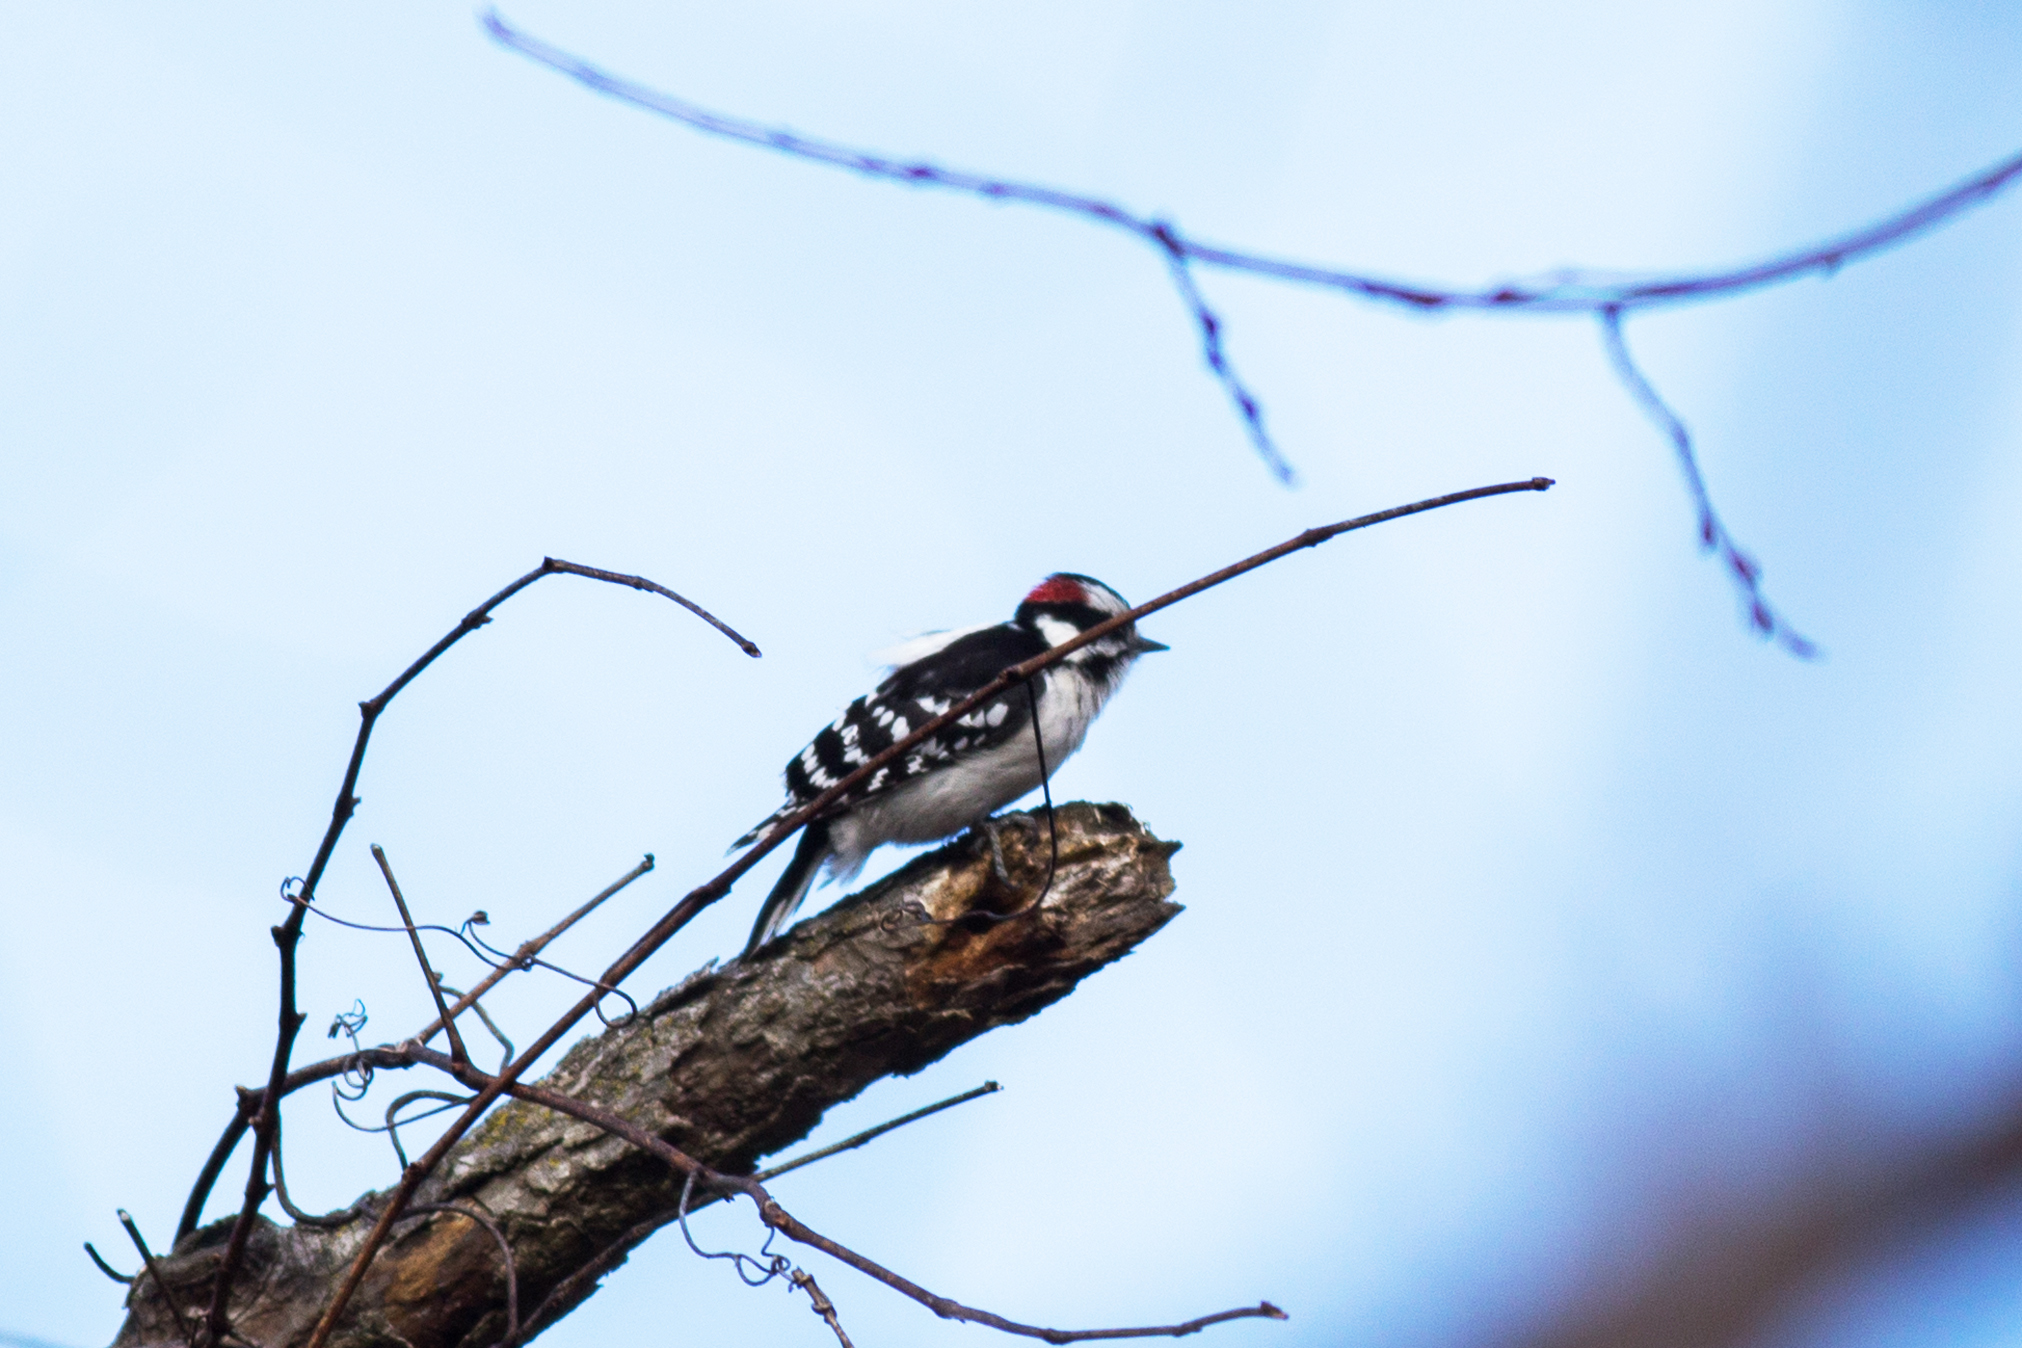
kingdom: Animalia
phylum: Chordata
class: Aves
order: Piciformes
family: Picidae
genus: Dryobates
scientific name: Dryobates pubescens
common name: Downy woodpecker
